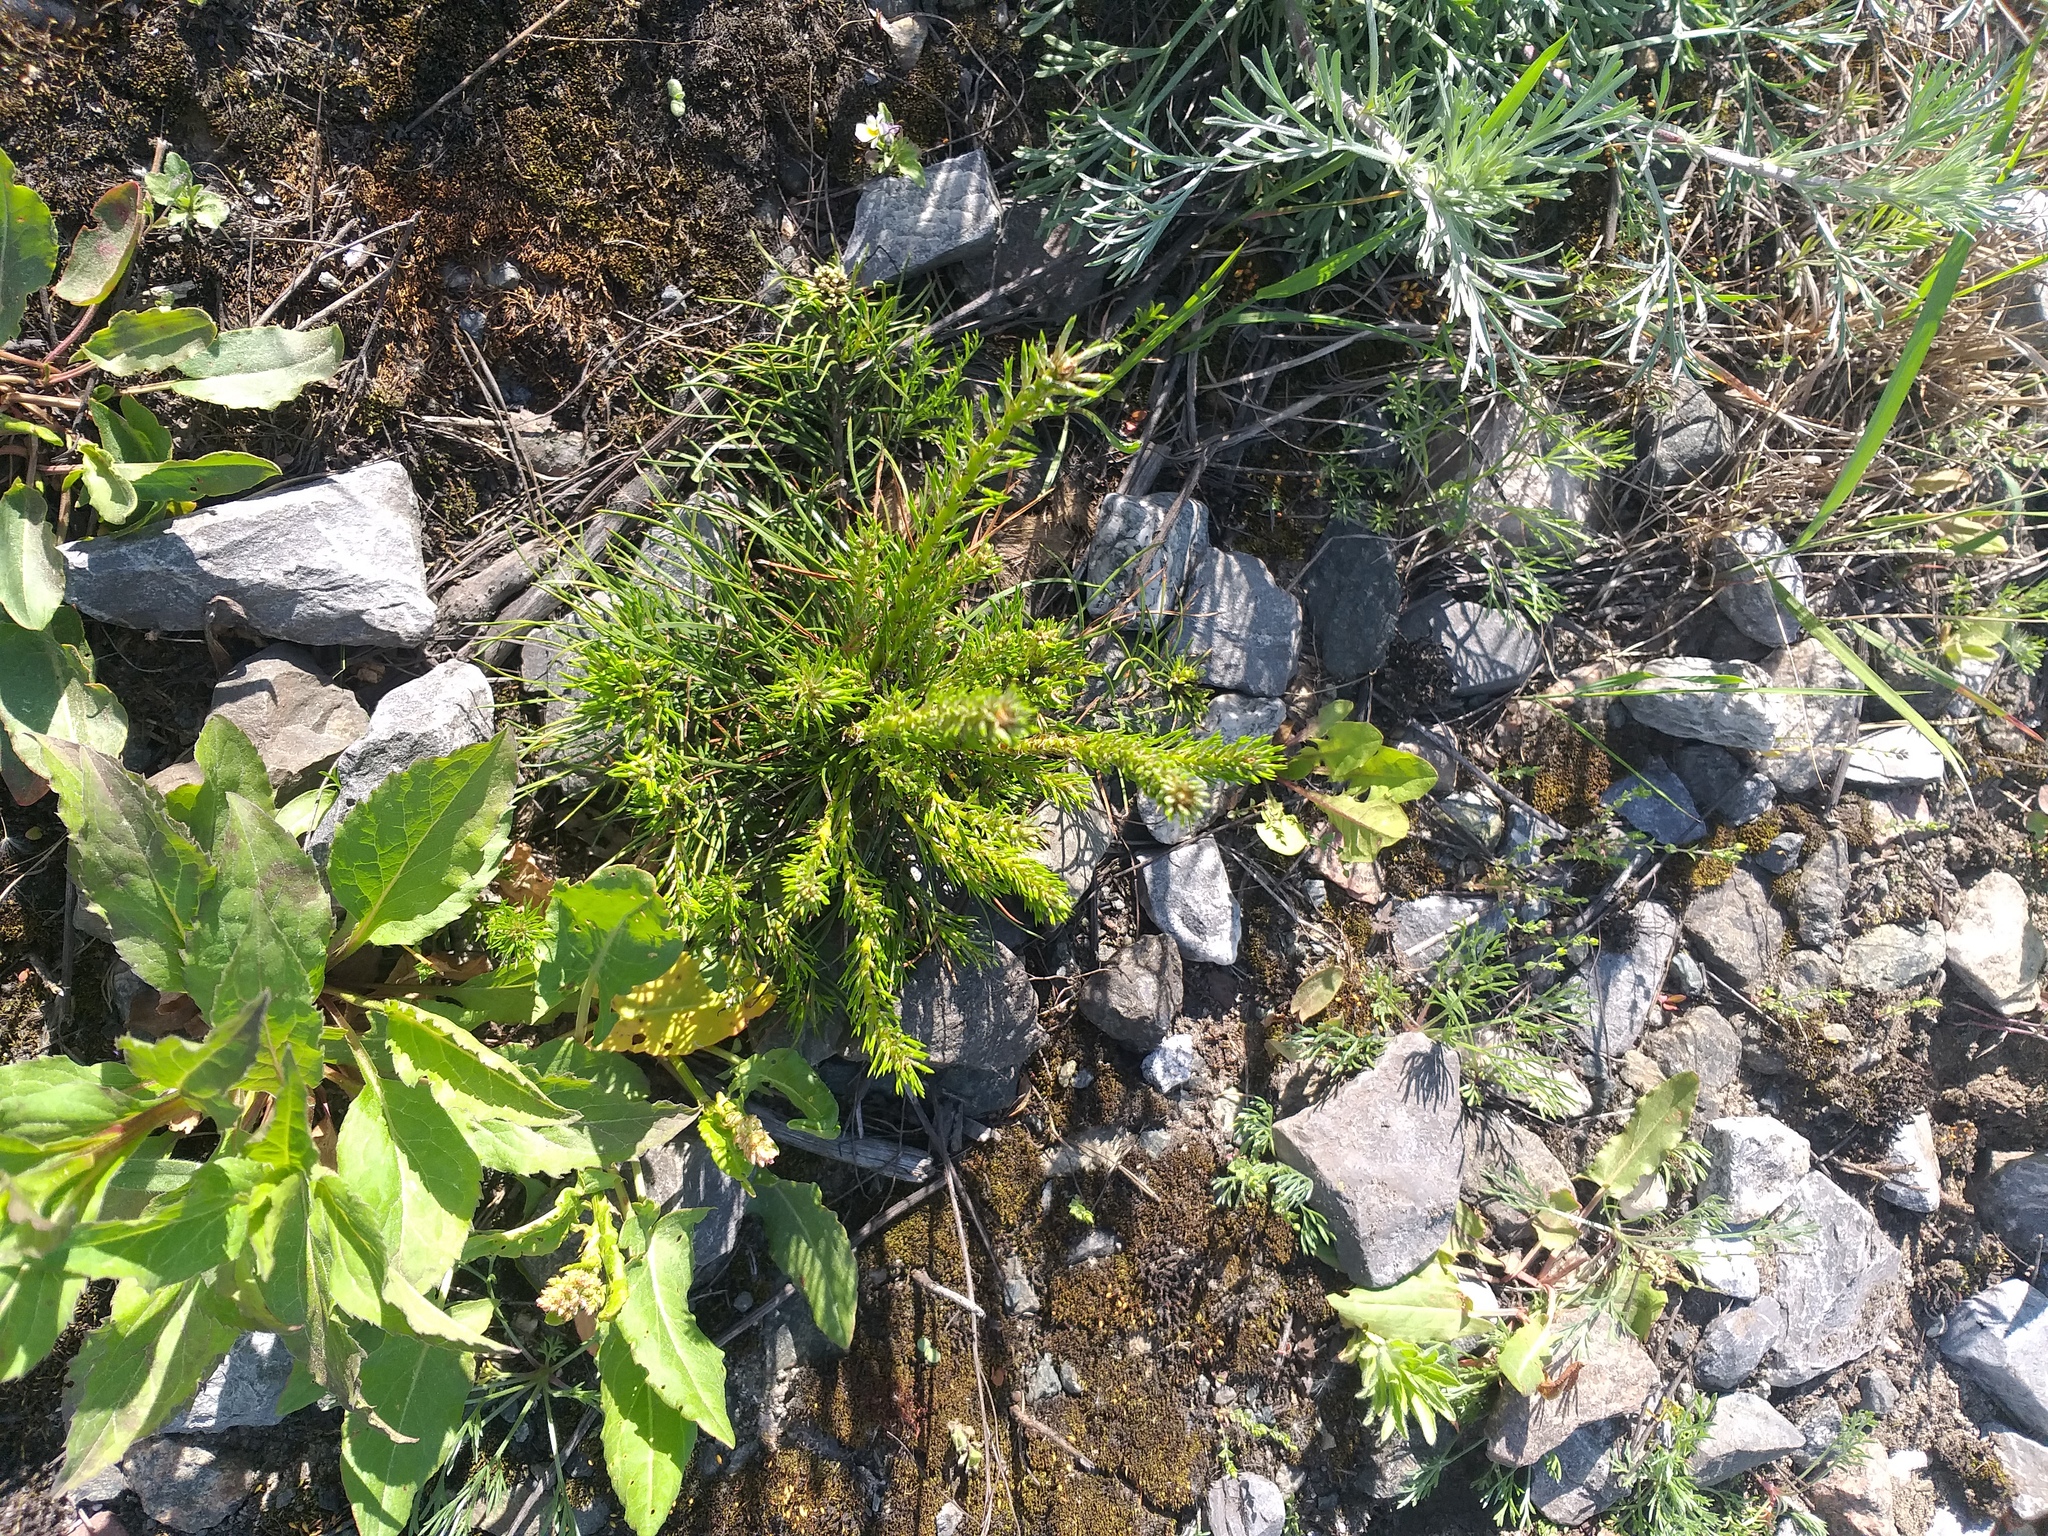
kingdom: Plantae
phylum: Tracheophyta
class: Pinopsida
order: Pinales
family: Pinaceae
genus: Pinus
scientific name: Pinus sylvestris
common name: Scots pine
